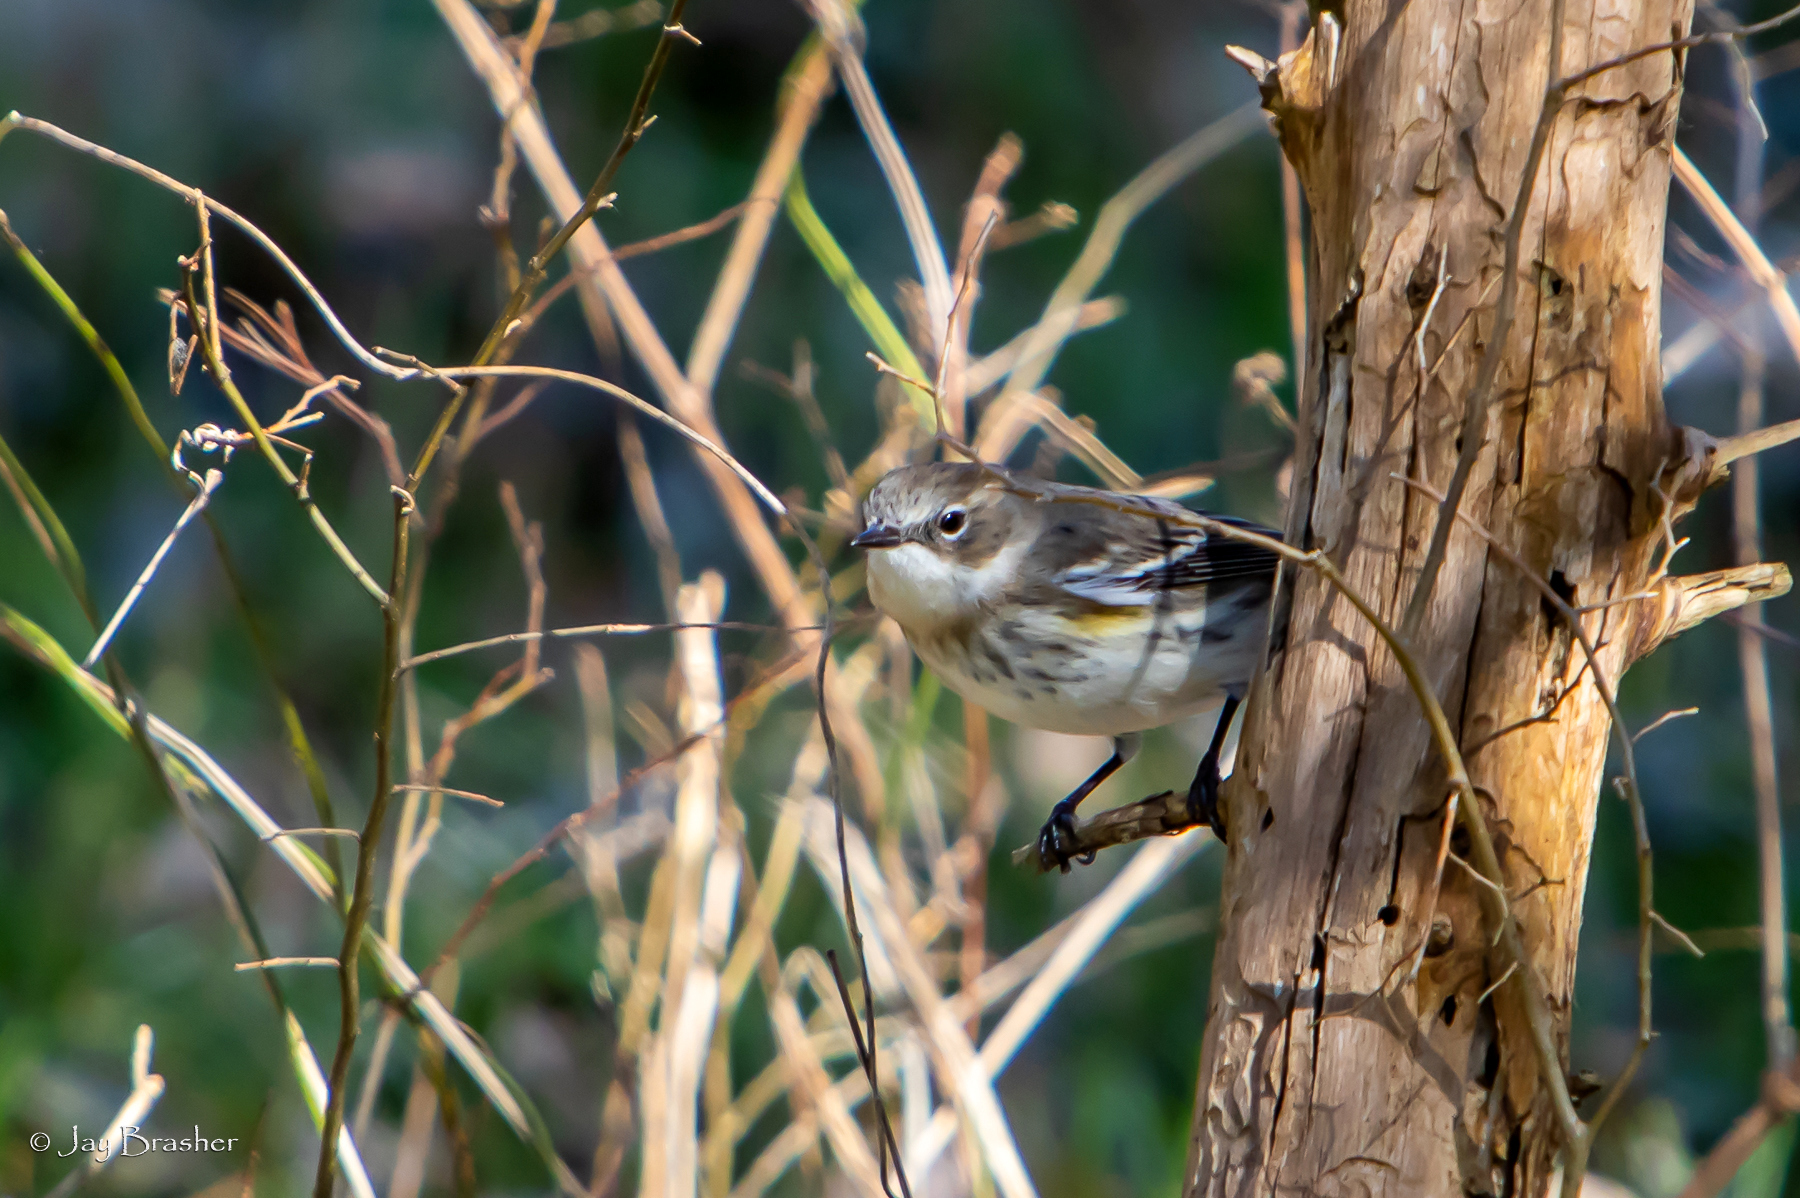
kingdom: Animalia
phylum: Chordata
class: Aves
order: Passeriformes
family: Parulidae
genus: Setophaga
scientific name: Setophaga coronata
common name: Myrtle warbler
